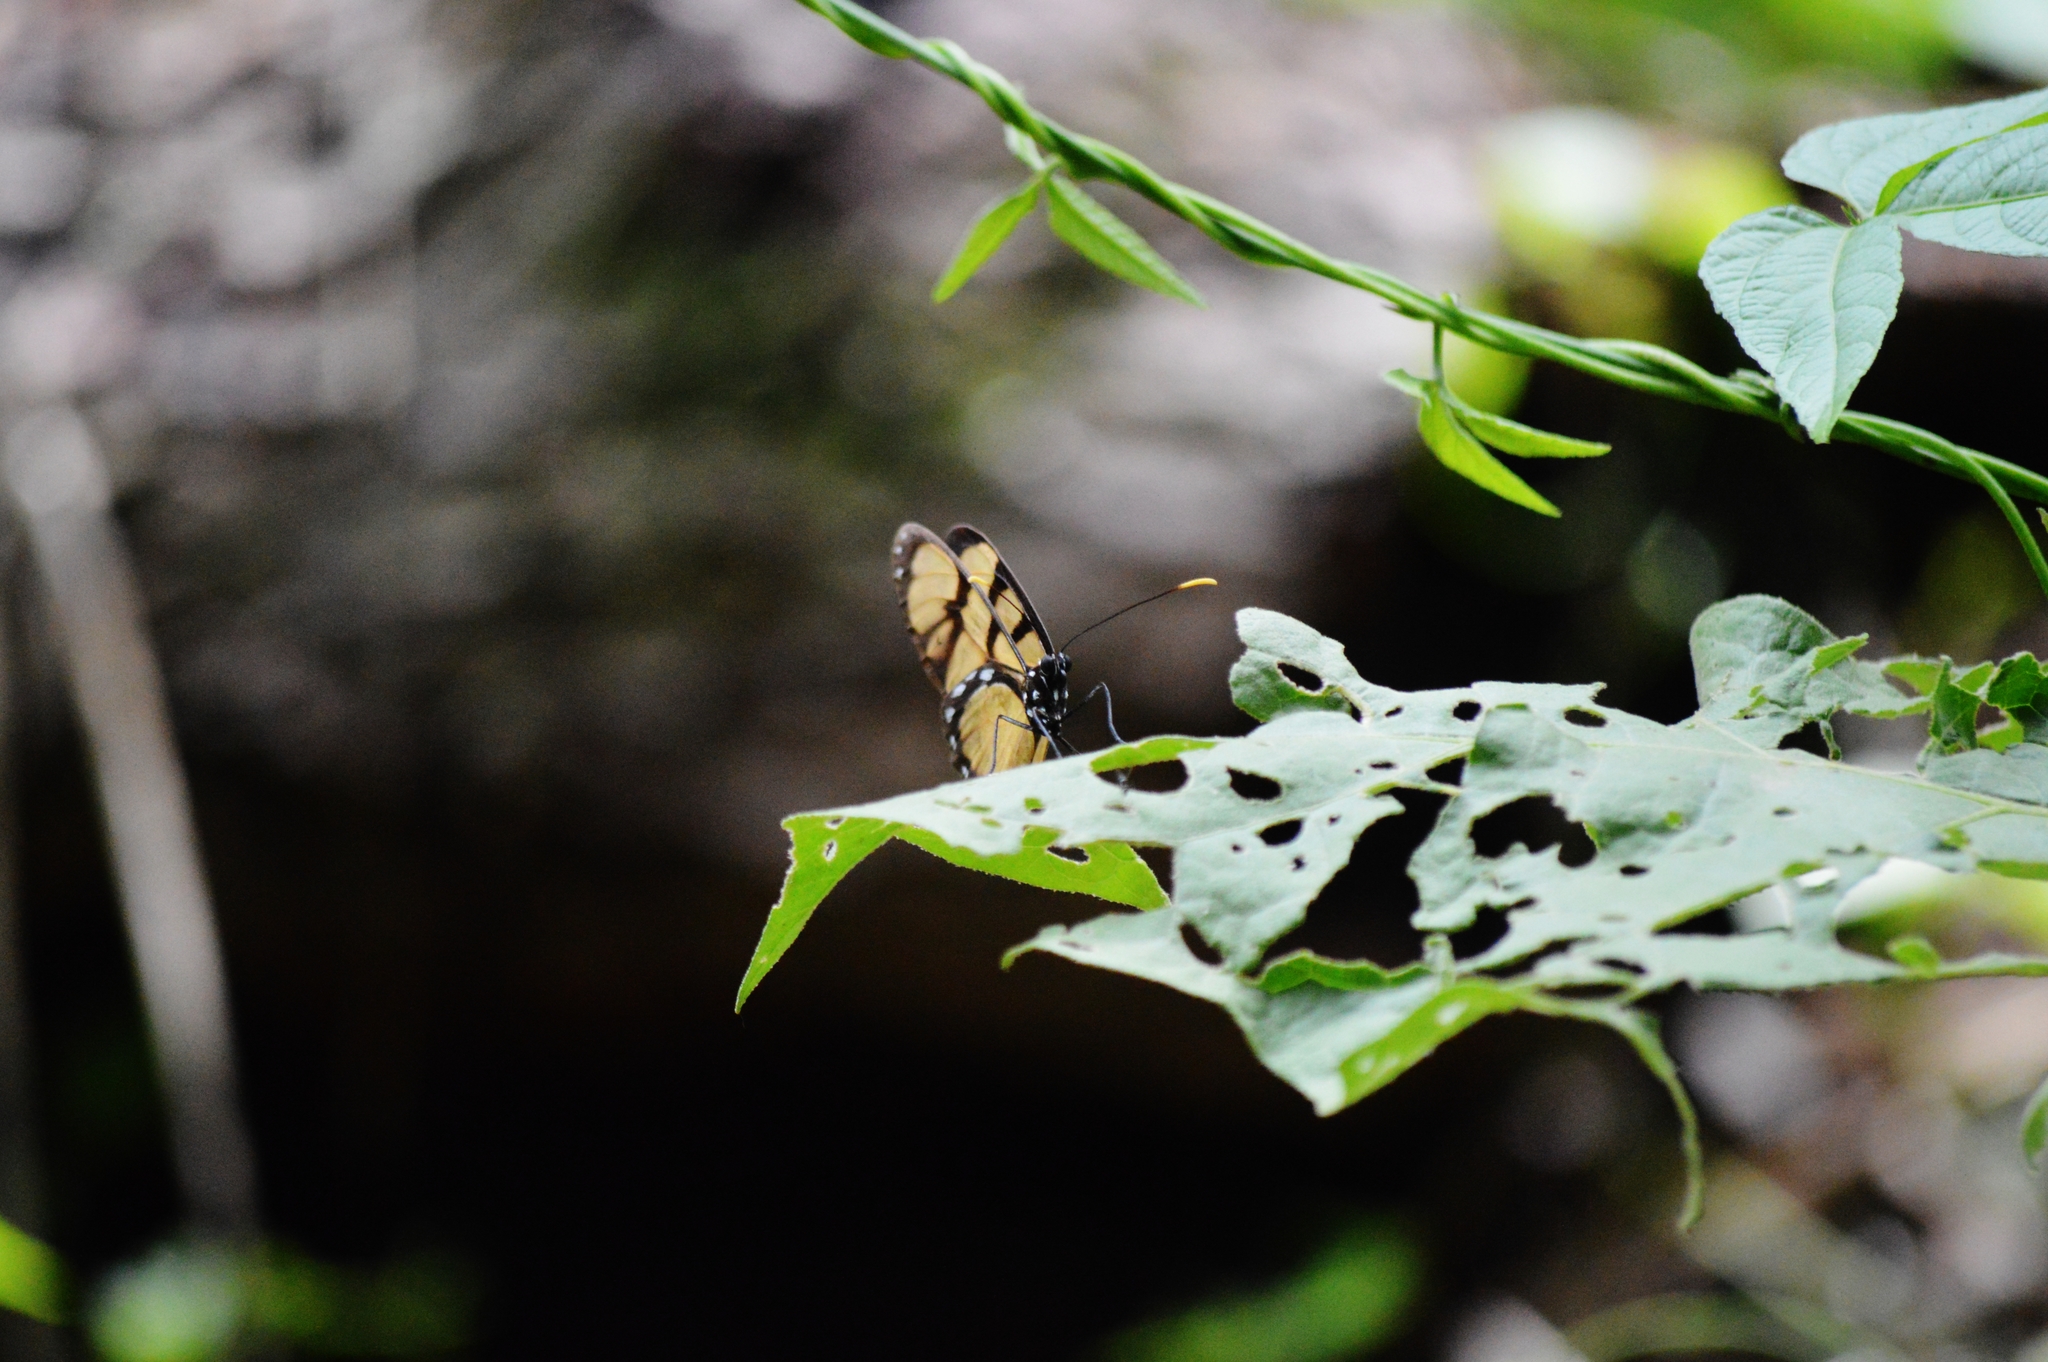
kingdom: Animalia
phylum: Arthropoda
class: Insecta
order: Lepidoptera
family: Nymphalidae
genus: Dircenna
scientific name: Dircenna dero
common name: Dero clearwing
